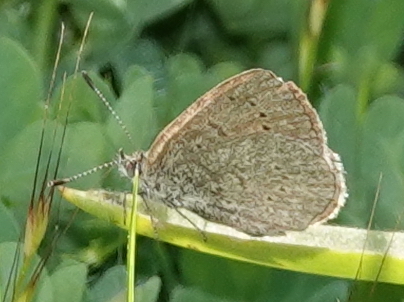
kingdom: Animalia
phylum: Arthropoda
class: Insecta
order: Lepidoptera
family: Lycaenidae
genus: Zizeeria
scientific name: Zizeeria knysna
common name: African grass blue
